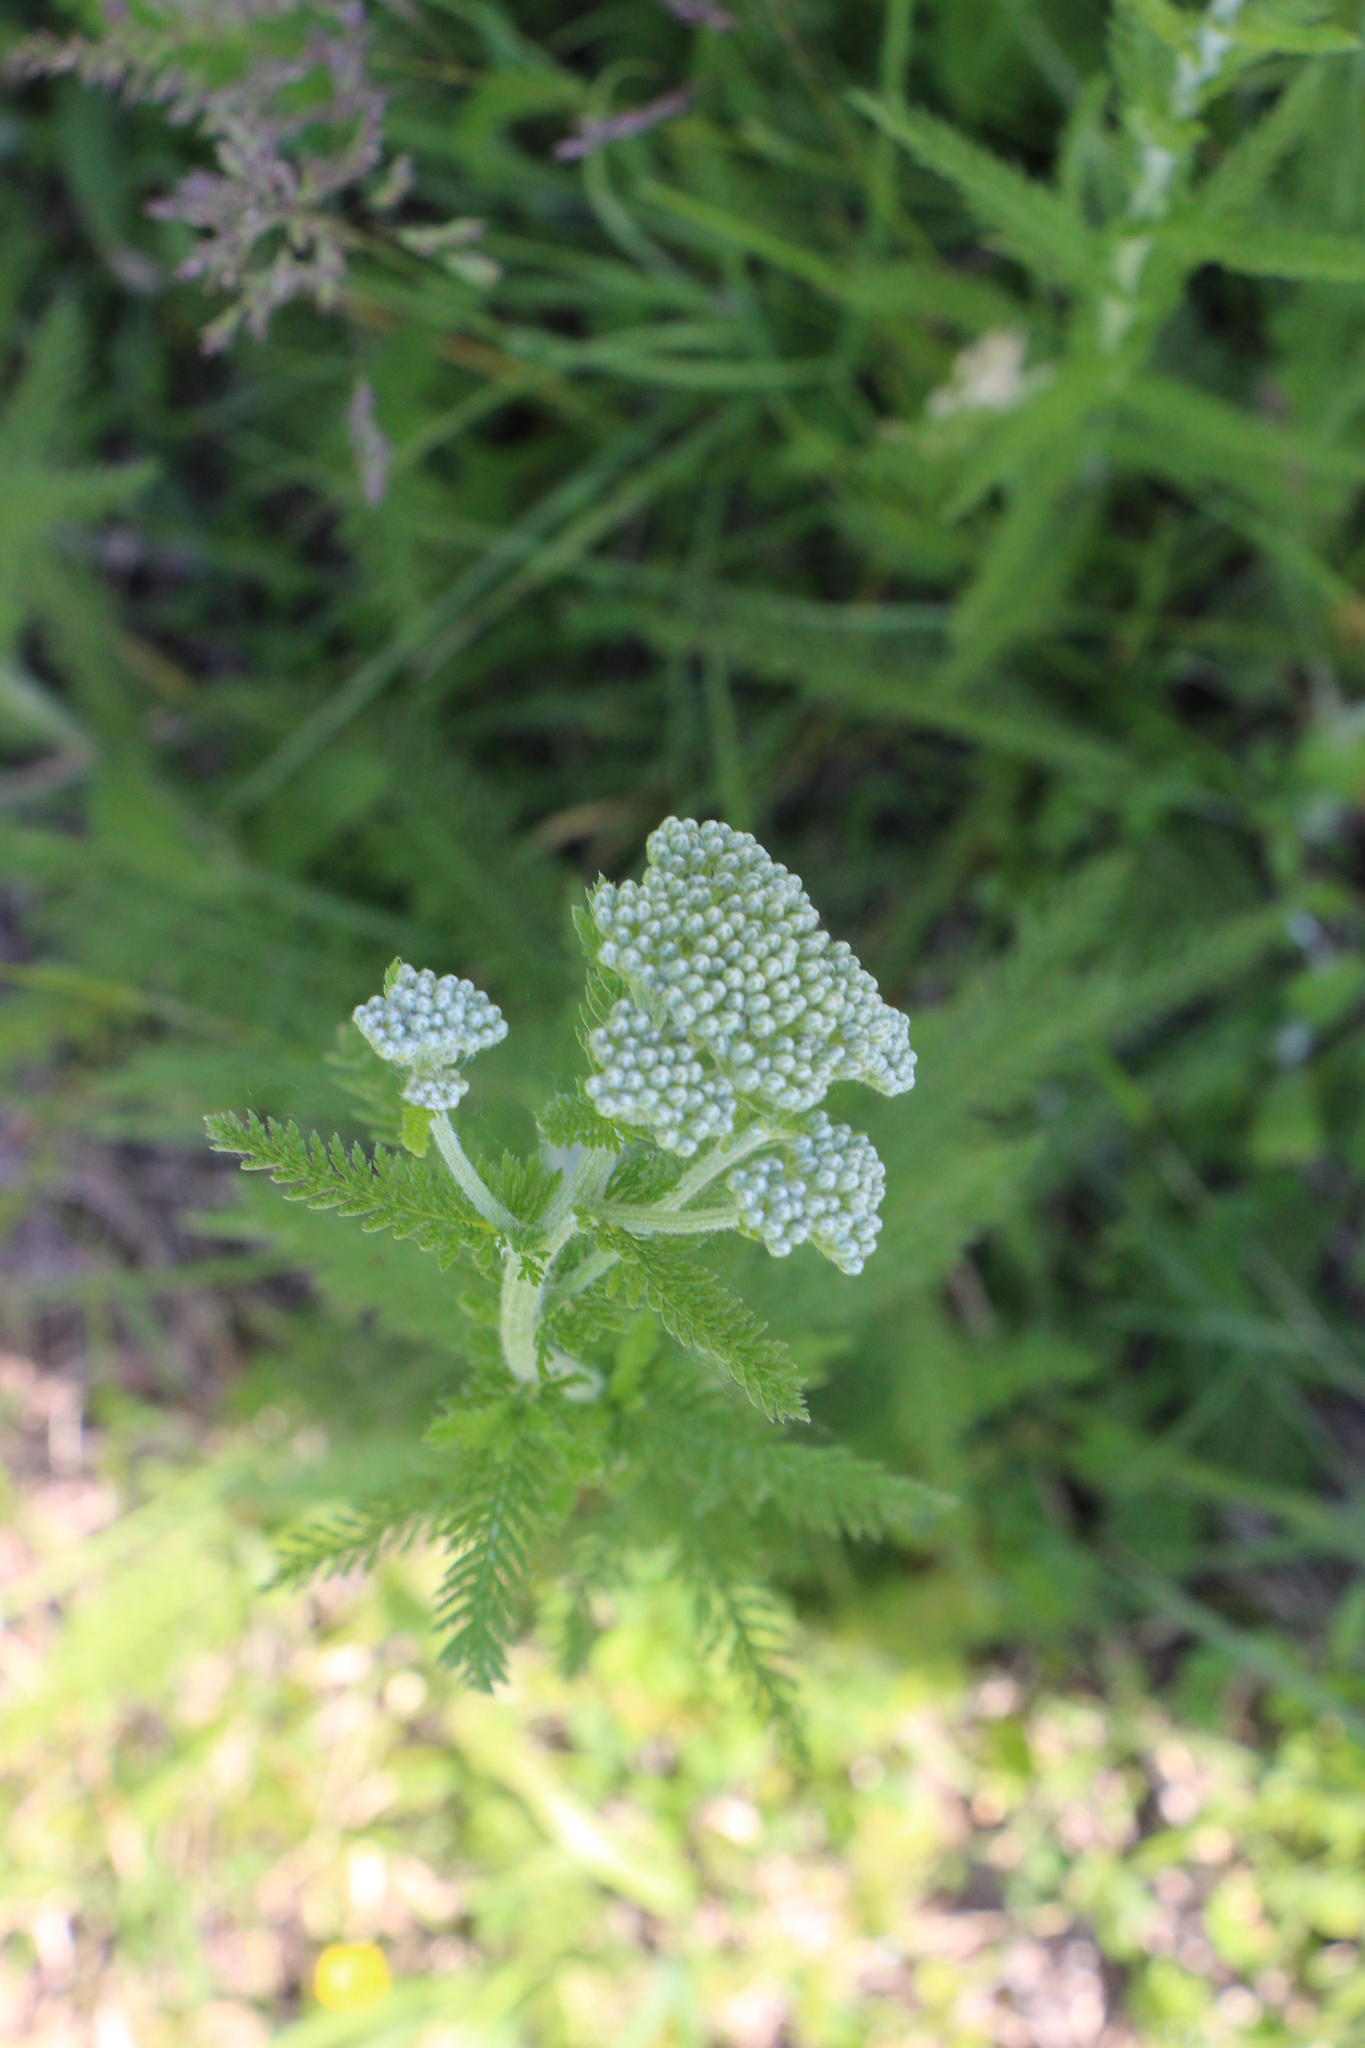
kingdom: Plantae
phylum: Tracheophyta
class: Magnoliopsida
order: Asterales
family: Asteraceae
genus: Achillea
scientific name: Achillea millefolium
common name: Yarrow
